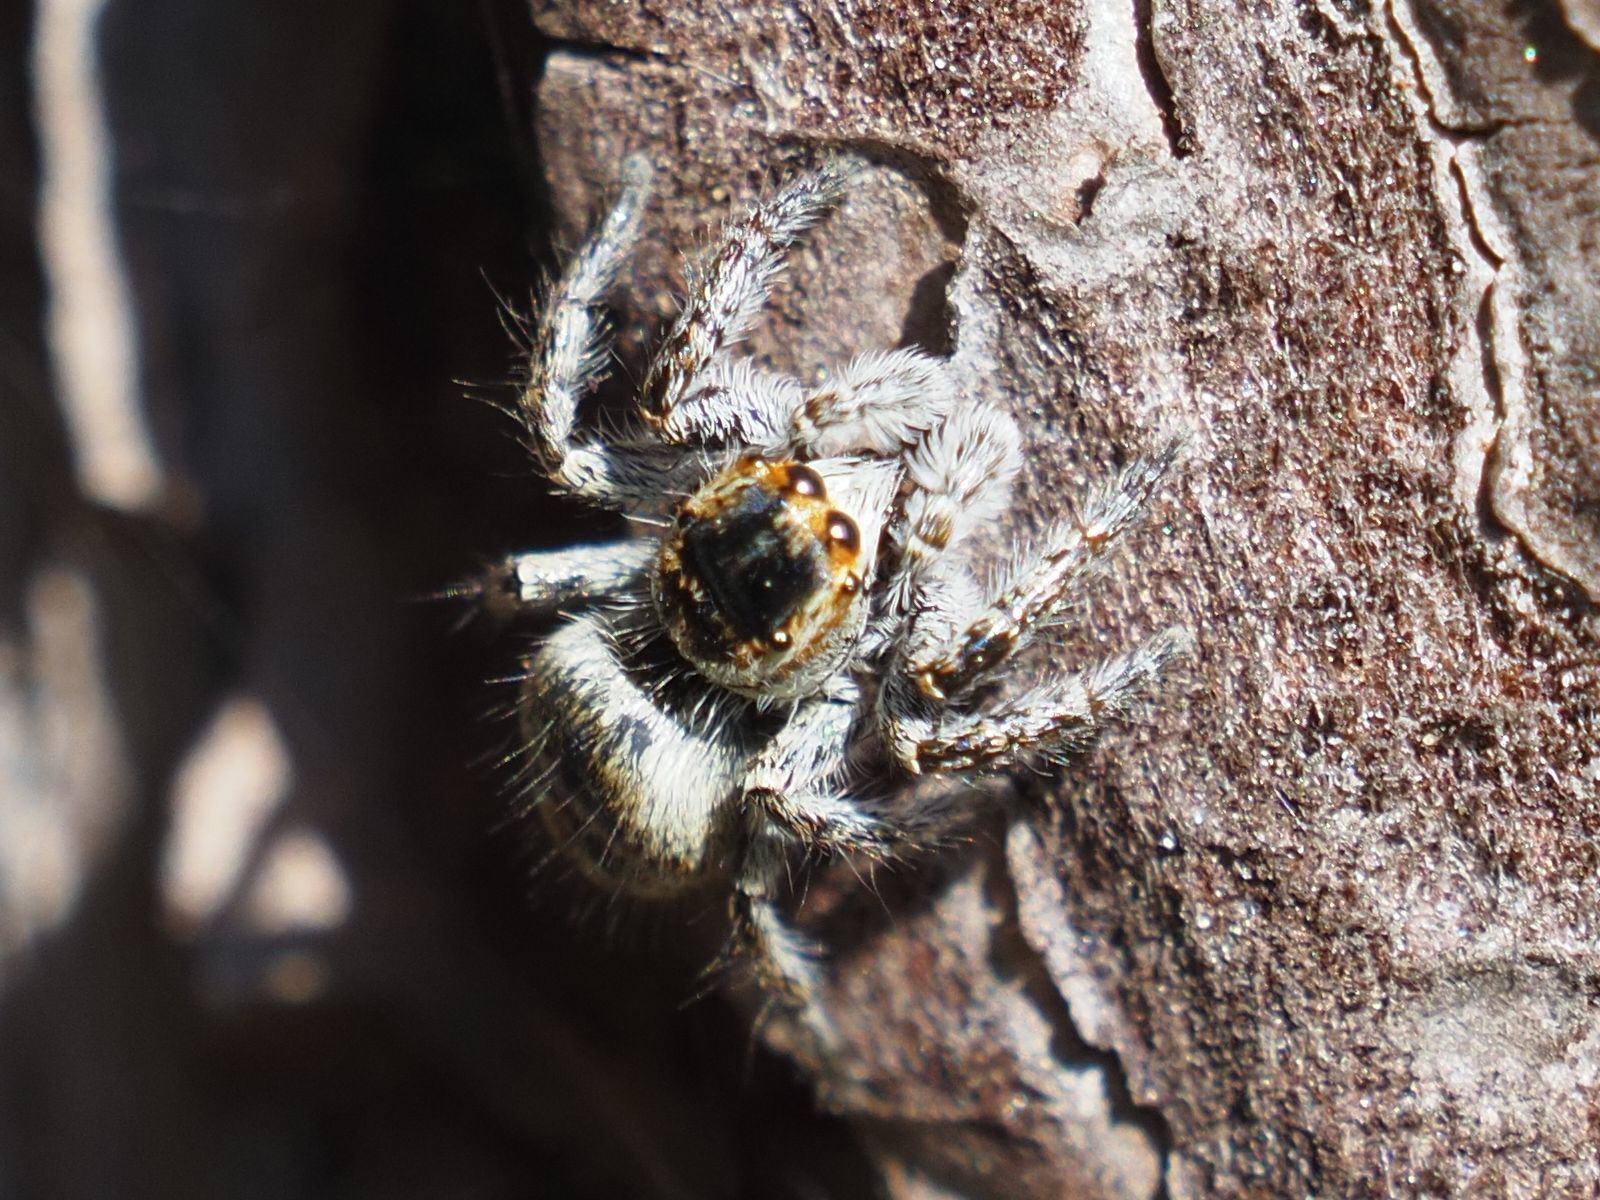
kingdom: Animalia
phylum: Arthropoda
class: Arachnida
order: Araneae
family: Salticidae
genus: Carrhotus
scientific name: Carrhotus xanthogramma
